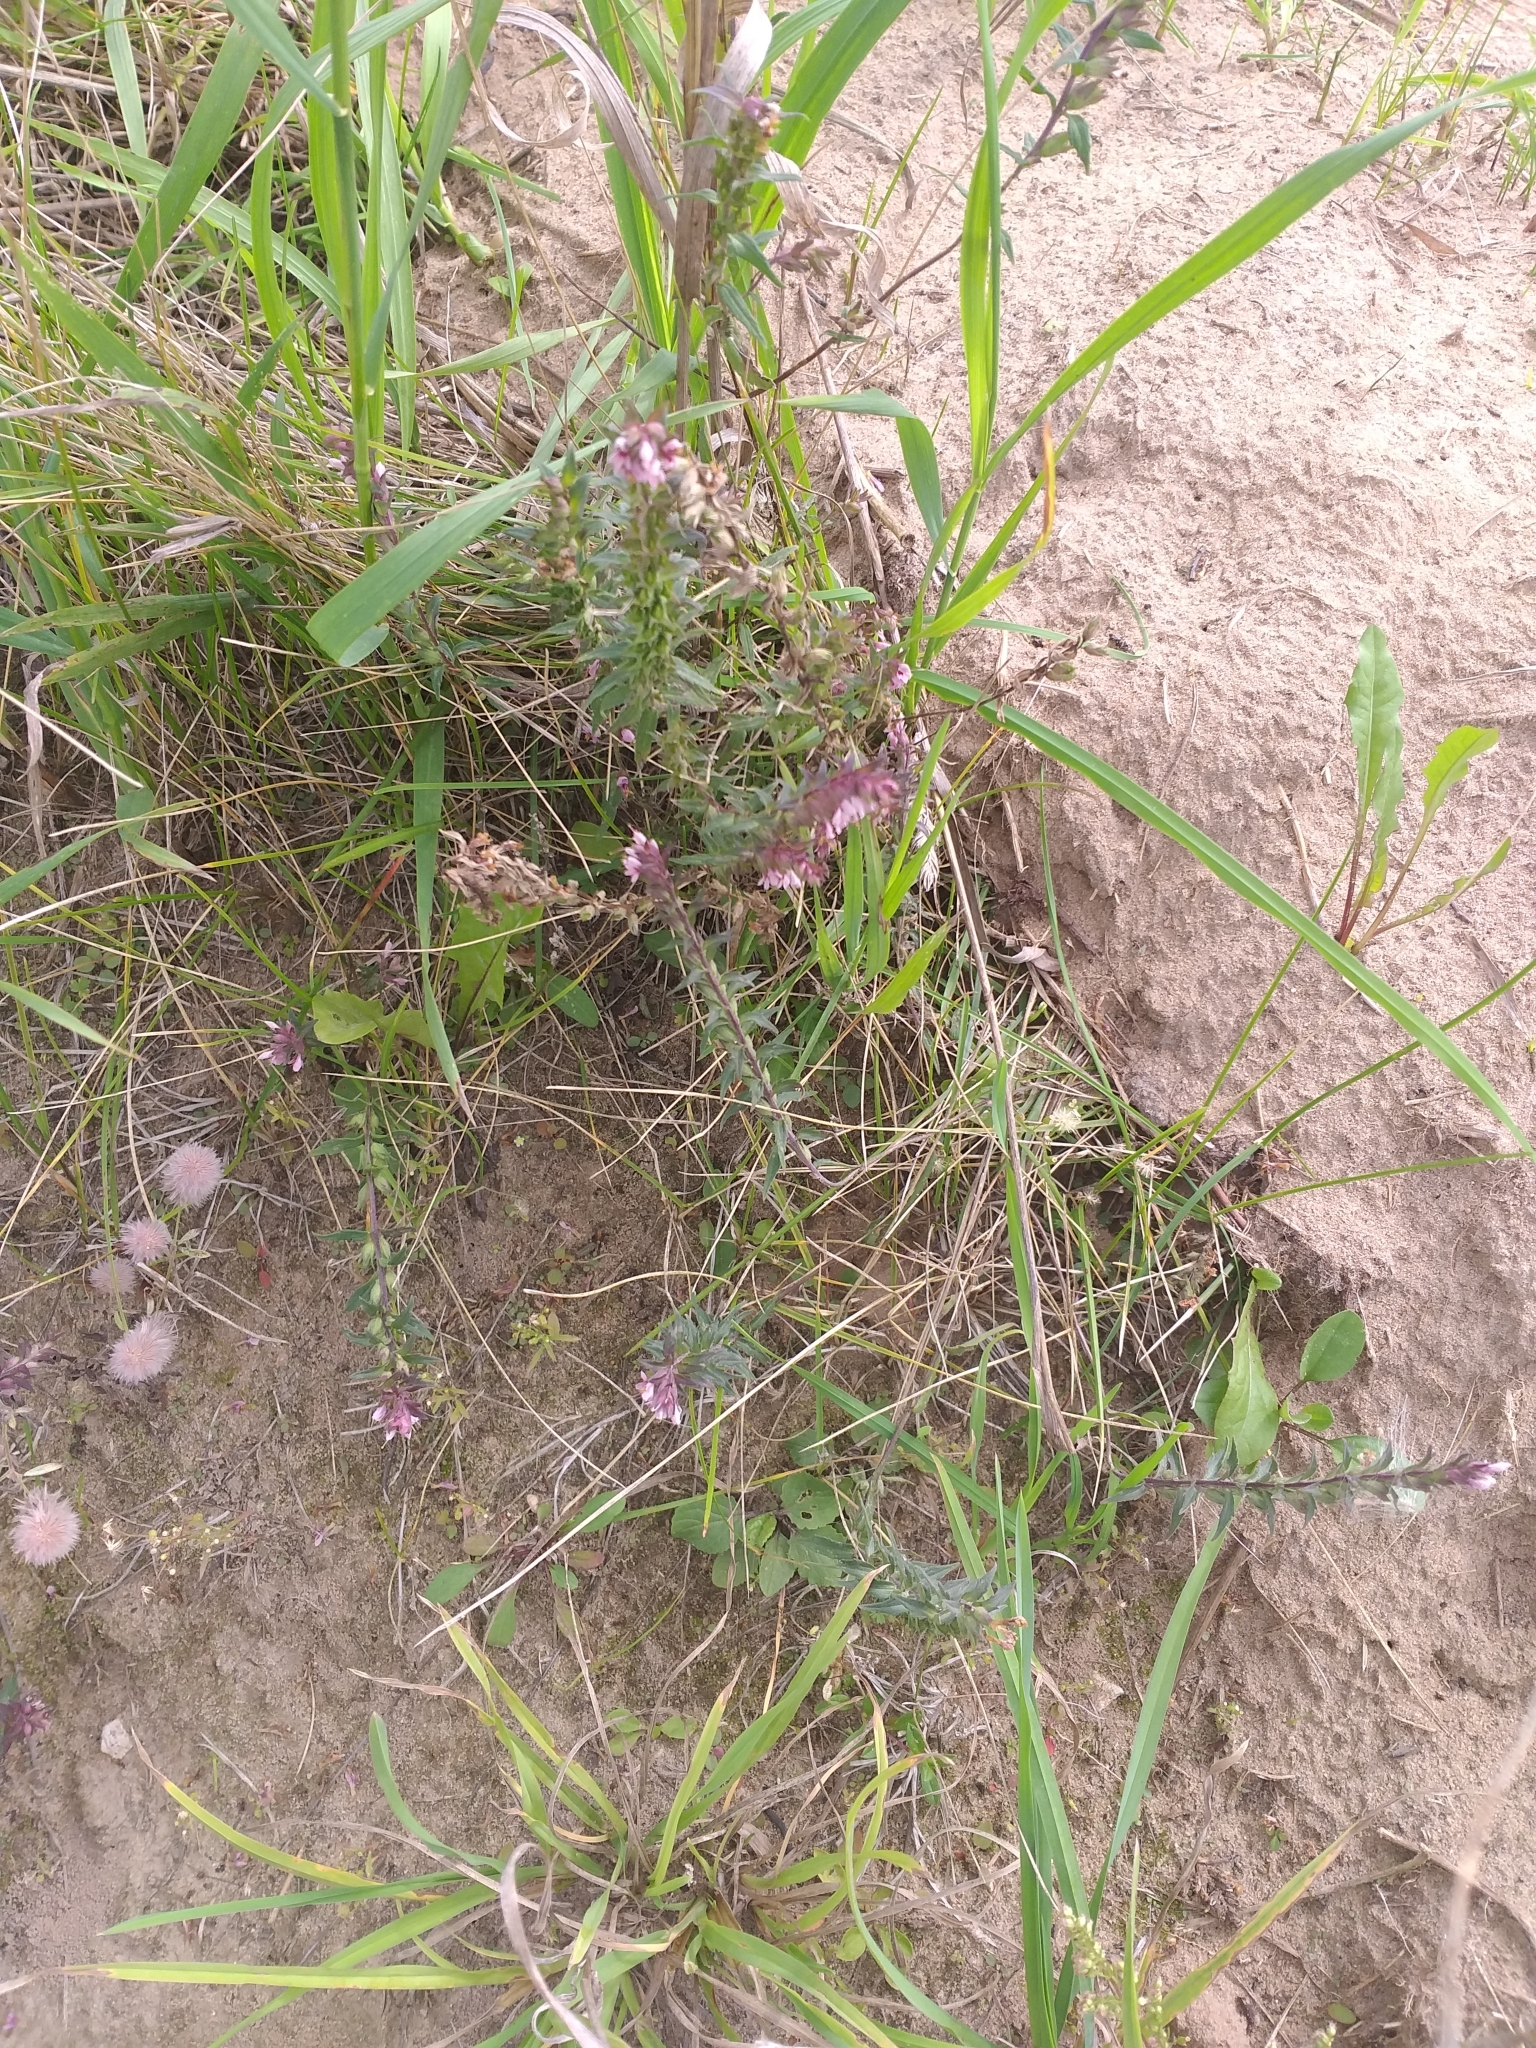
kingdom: Plantae
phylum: Tracheophyta
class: Magnoliopsida
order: Lamiales
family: Orobanchaceae
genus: Odontites
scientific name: Odontites vulgaris
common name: Broomrape
